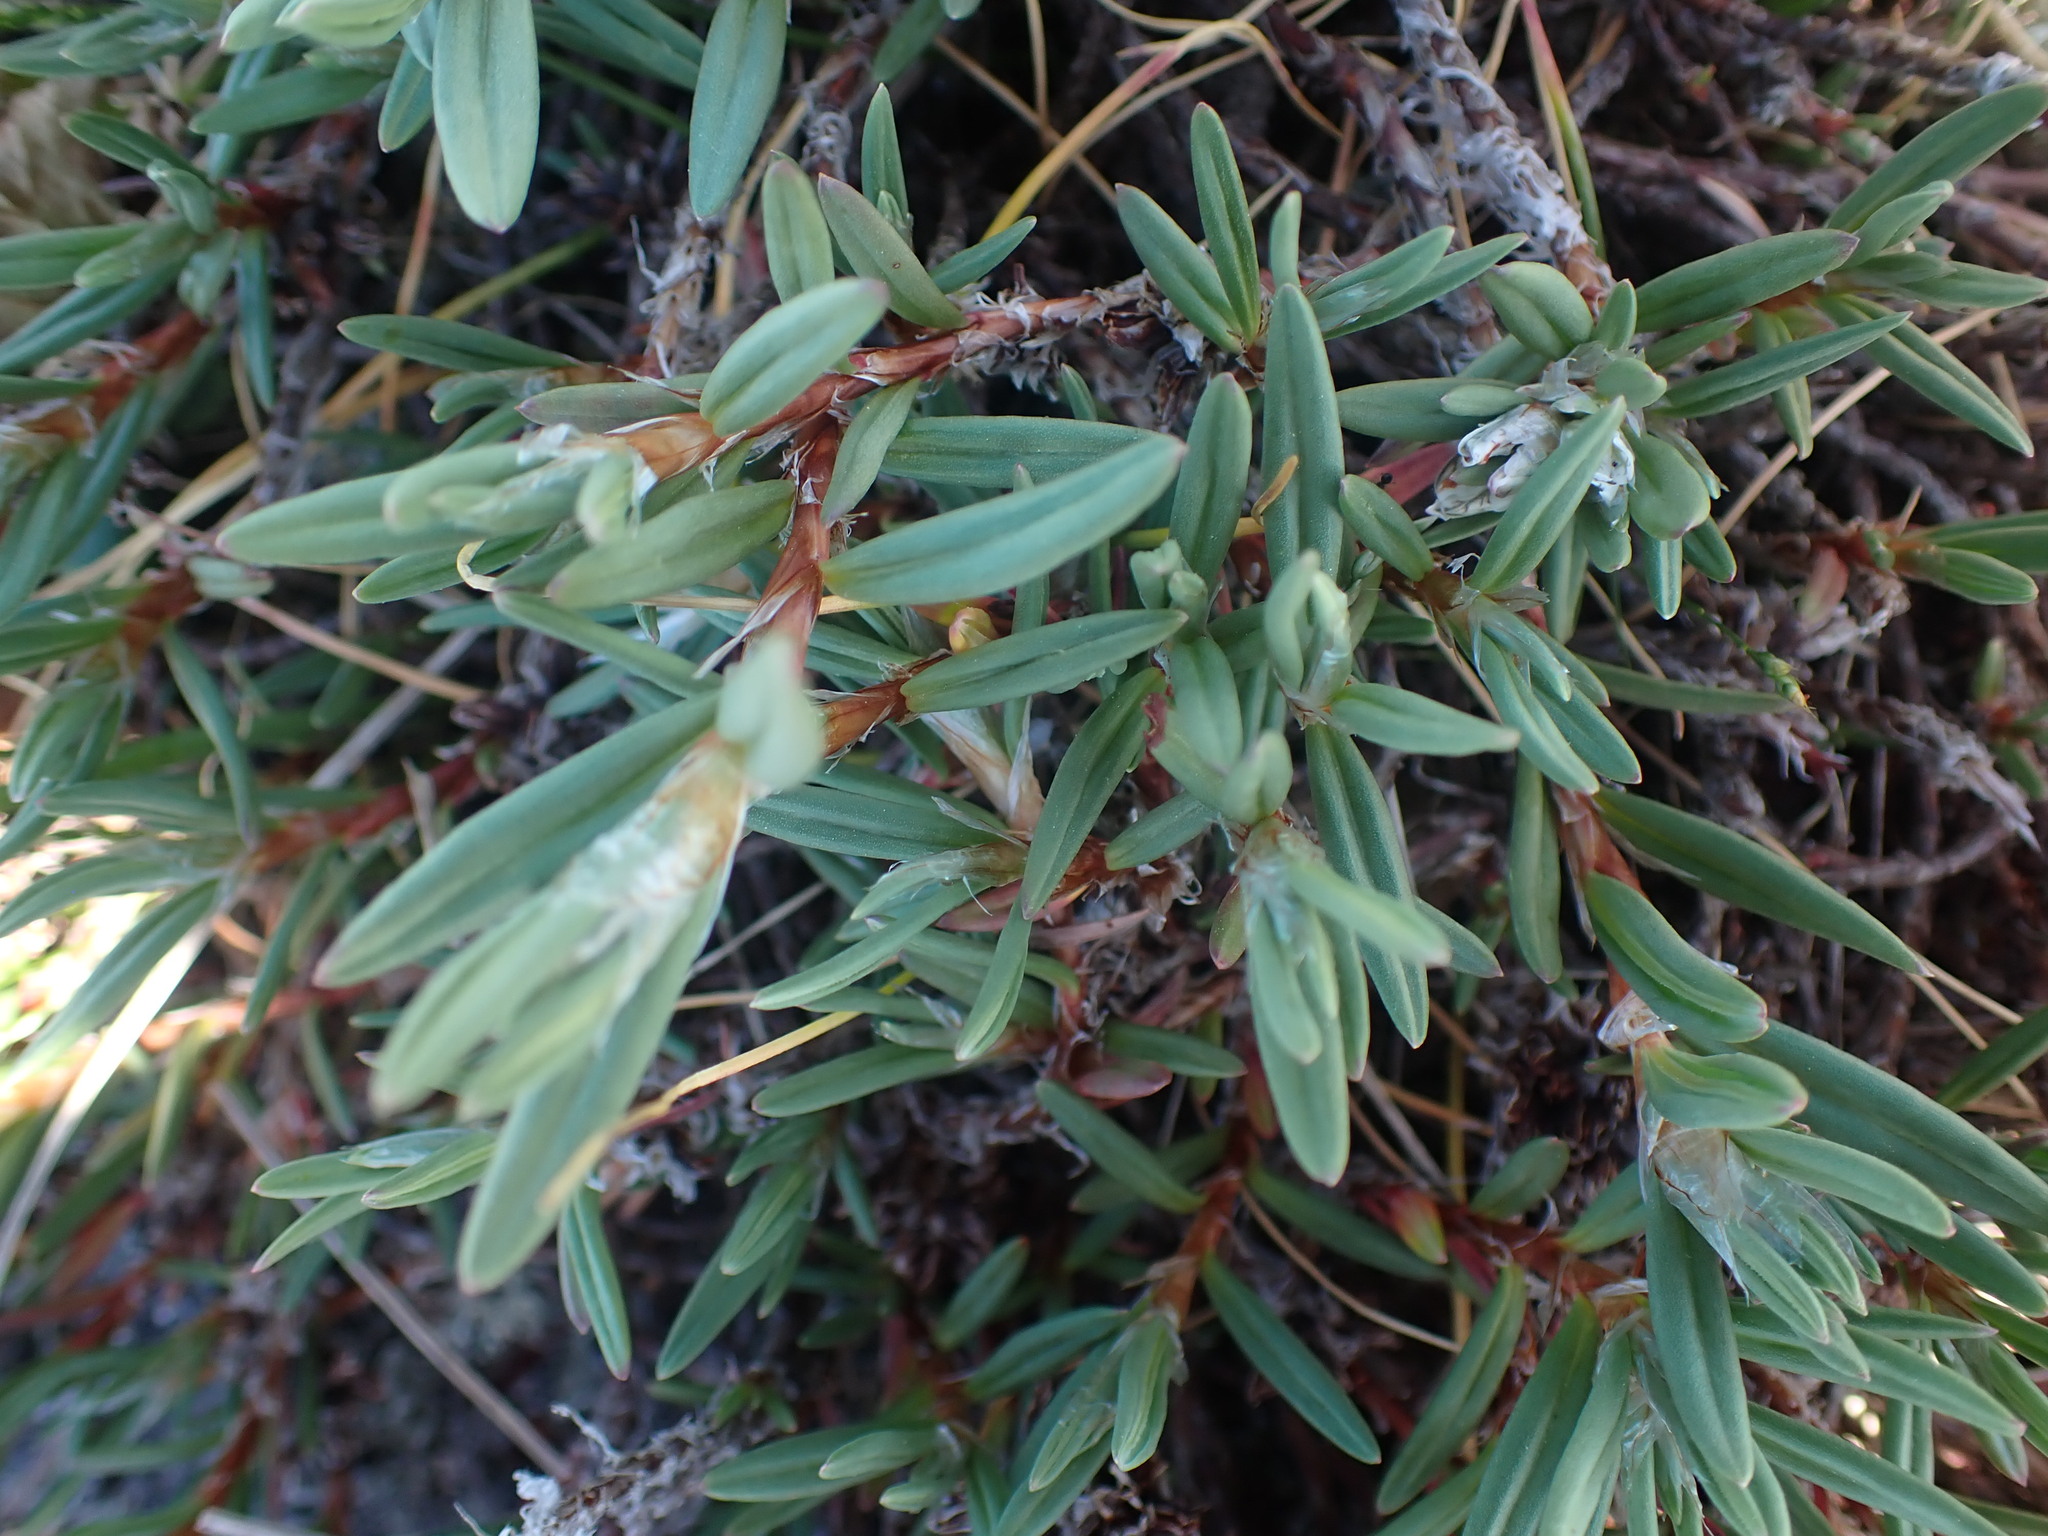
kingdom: Plantae
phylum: Tracheophyta
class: Magnoliopsida
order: Caryophyllales
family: Polygonaceae
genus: Polygonum
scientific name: Polygonum paronychia
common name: Dune knotweed
